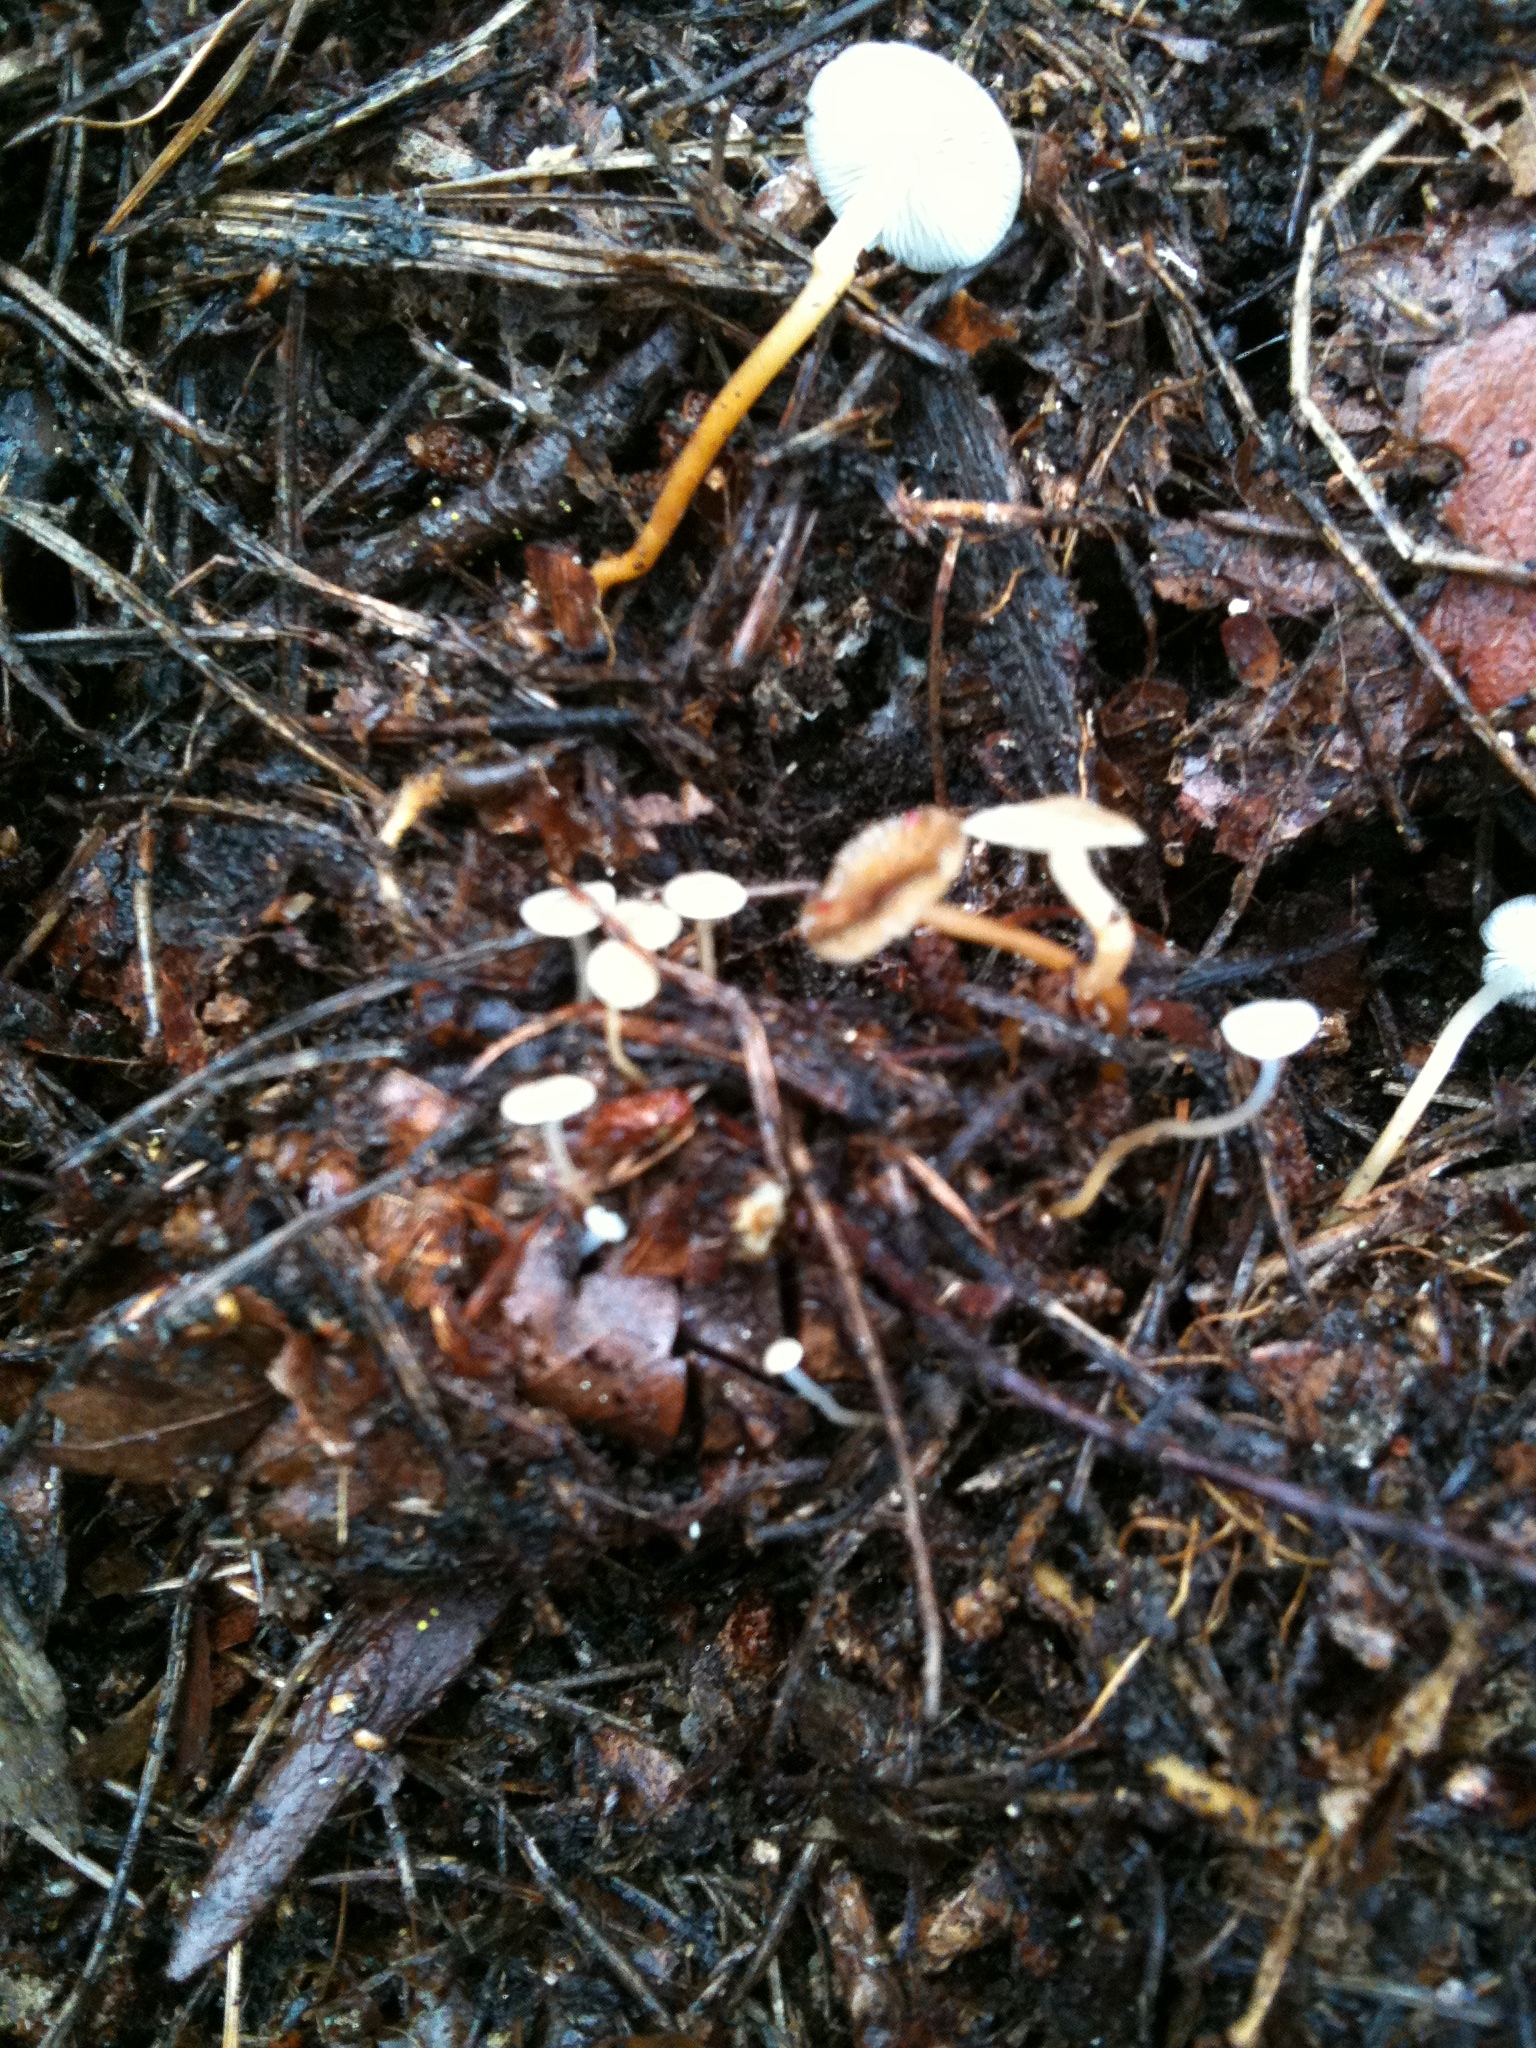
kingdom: Fungi
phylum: Basidiomycota
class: Agaricomycetes
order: Agaricales
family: Physalacriaceae
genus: Strobilurus
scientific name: Strobilurus stephanocystis
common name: Russian conecap
